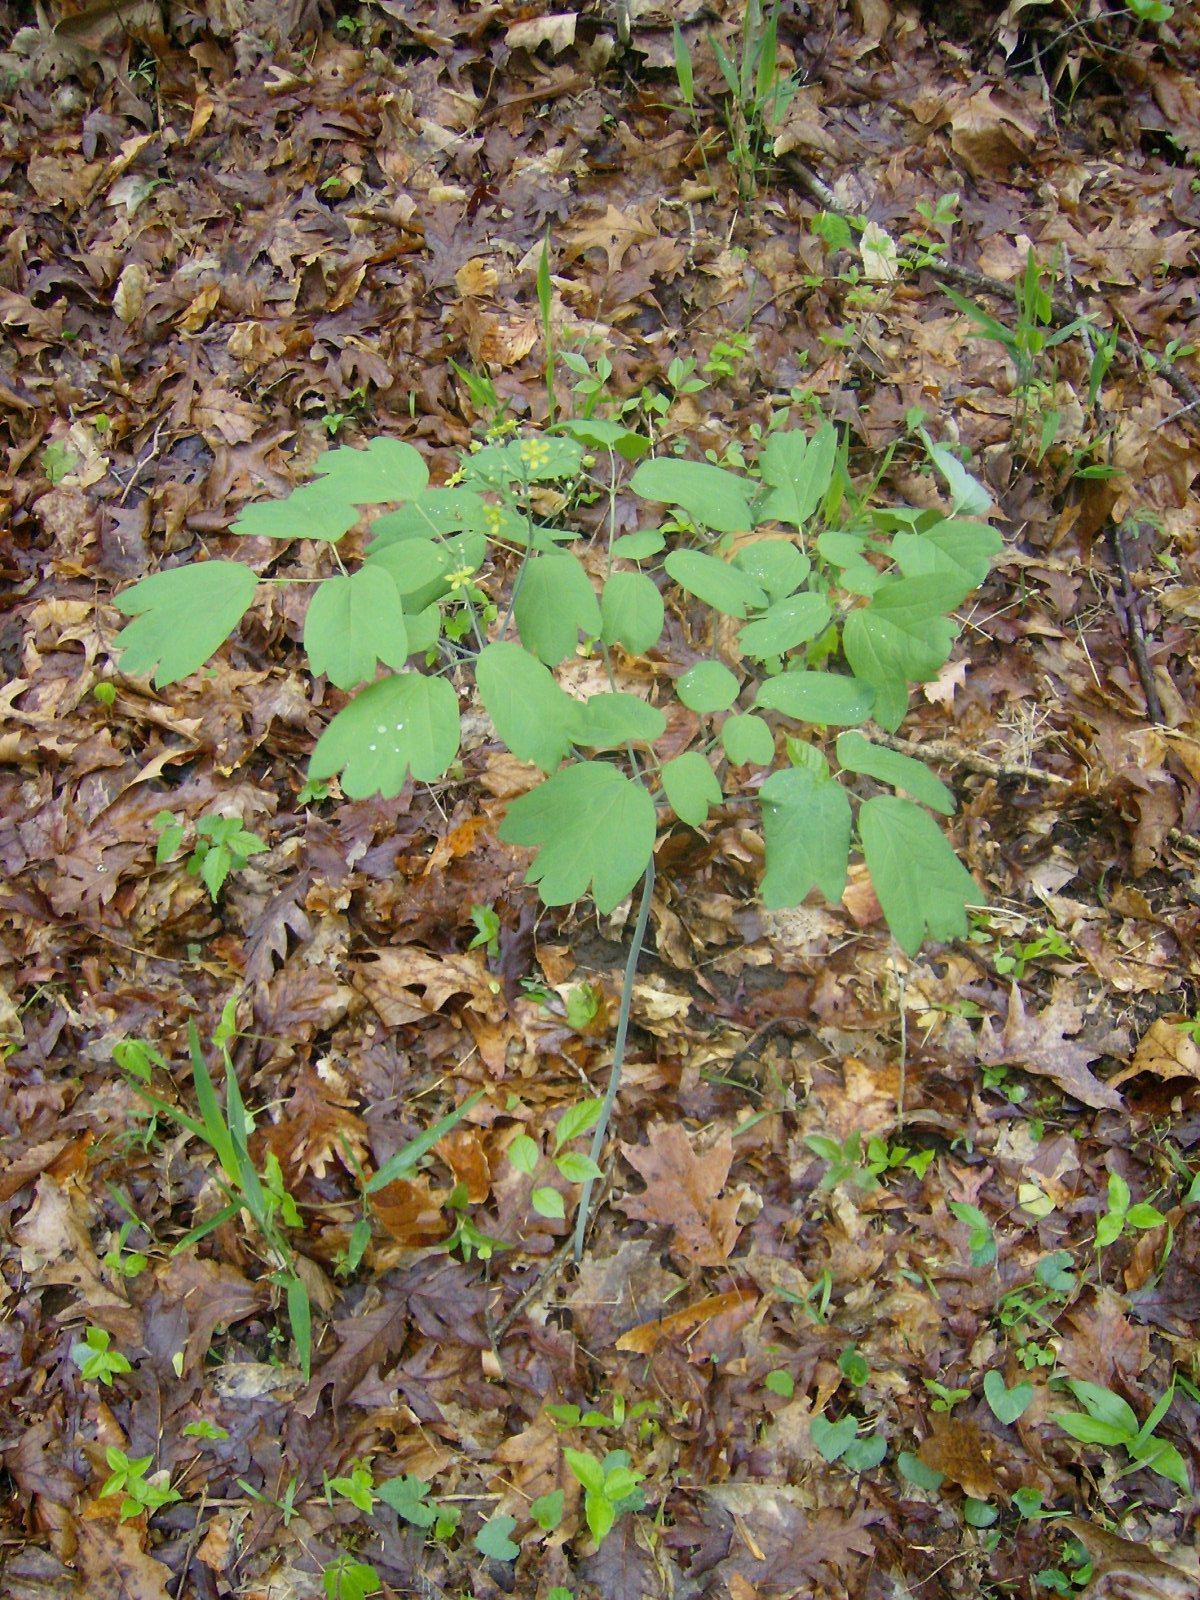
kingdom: Plantae
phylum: Tracheophyta
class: Magnoliopsida
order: Ranunculales
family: Berberidaceae
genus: Caulophyllum
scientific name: Caulophyllum thalictroides
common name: Blue cohosh
